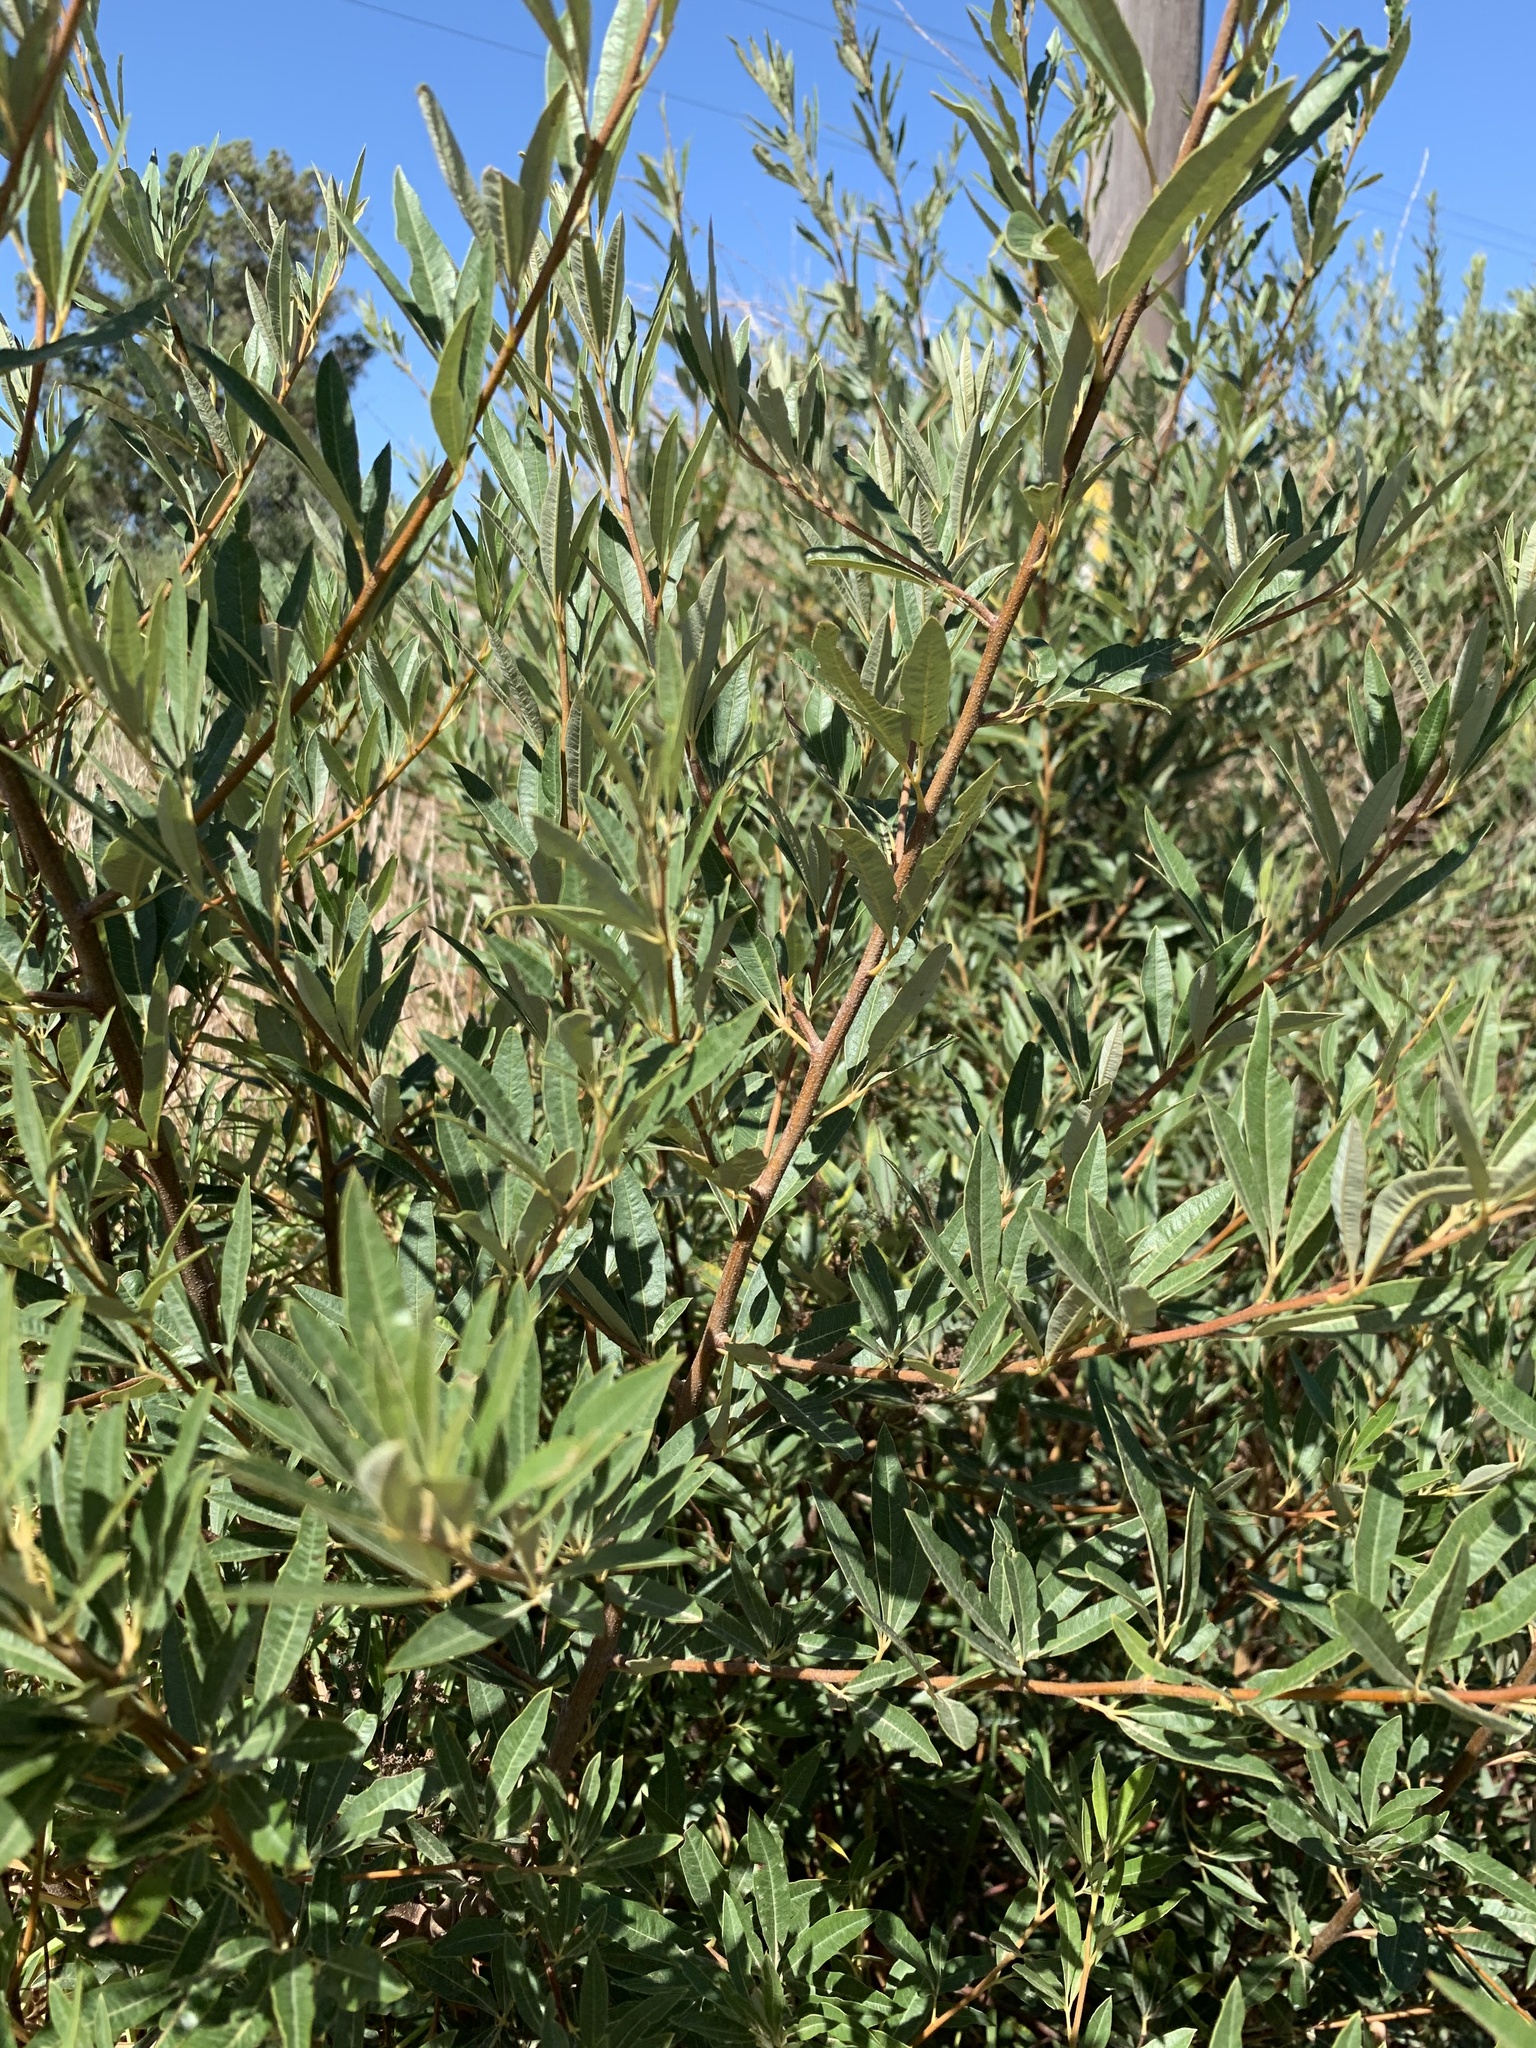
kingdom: Plantae
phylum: Tracheophyta
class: Magnoliopsida
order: Sapindales
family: Anacardiaceae
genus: Searsia
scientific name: Searsia angustifolia
